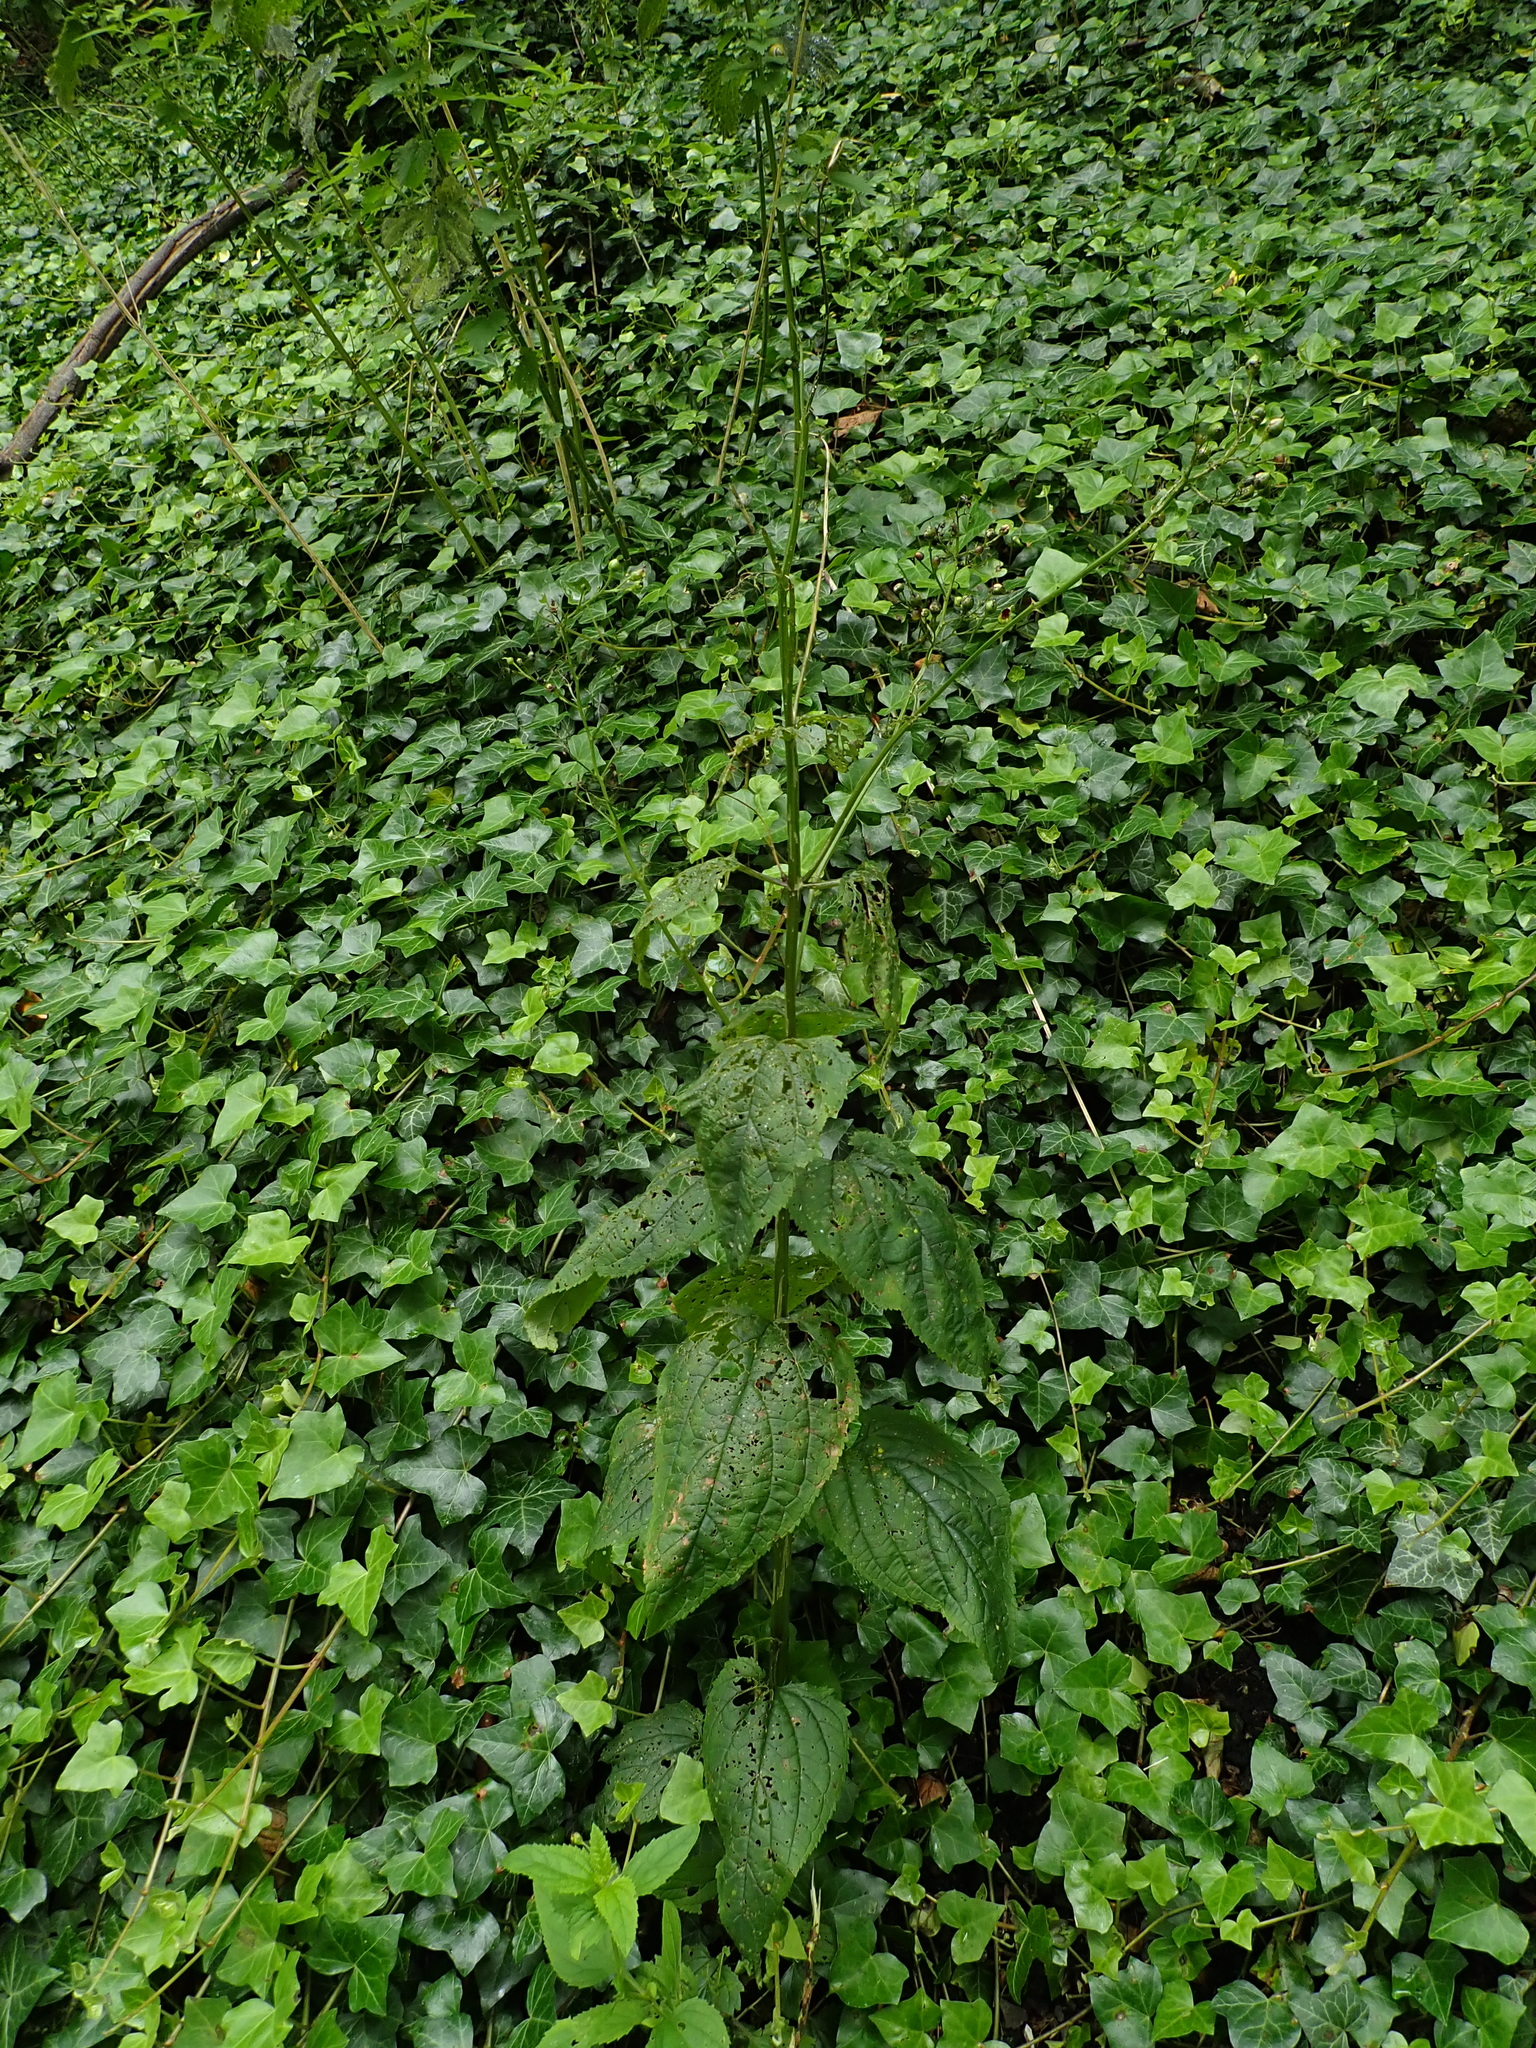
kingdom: Plantae
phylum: Tracheophyta
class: Magnoliopsida
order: Lamiales
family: Scrophulariaceae
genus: Scrophularia
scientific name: Scrophularia nodosa
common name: Common figwort
